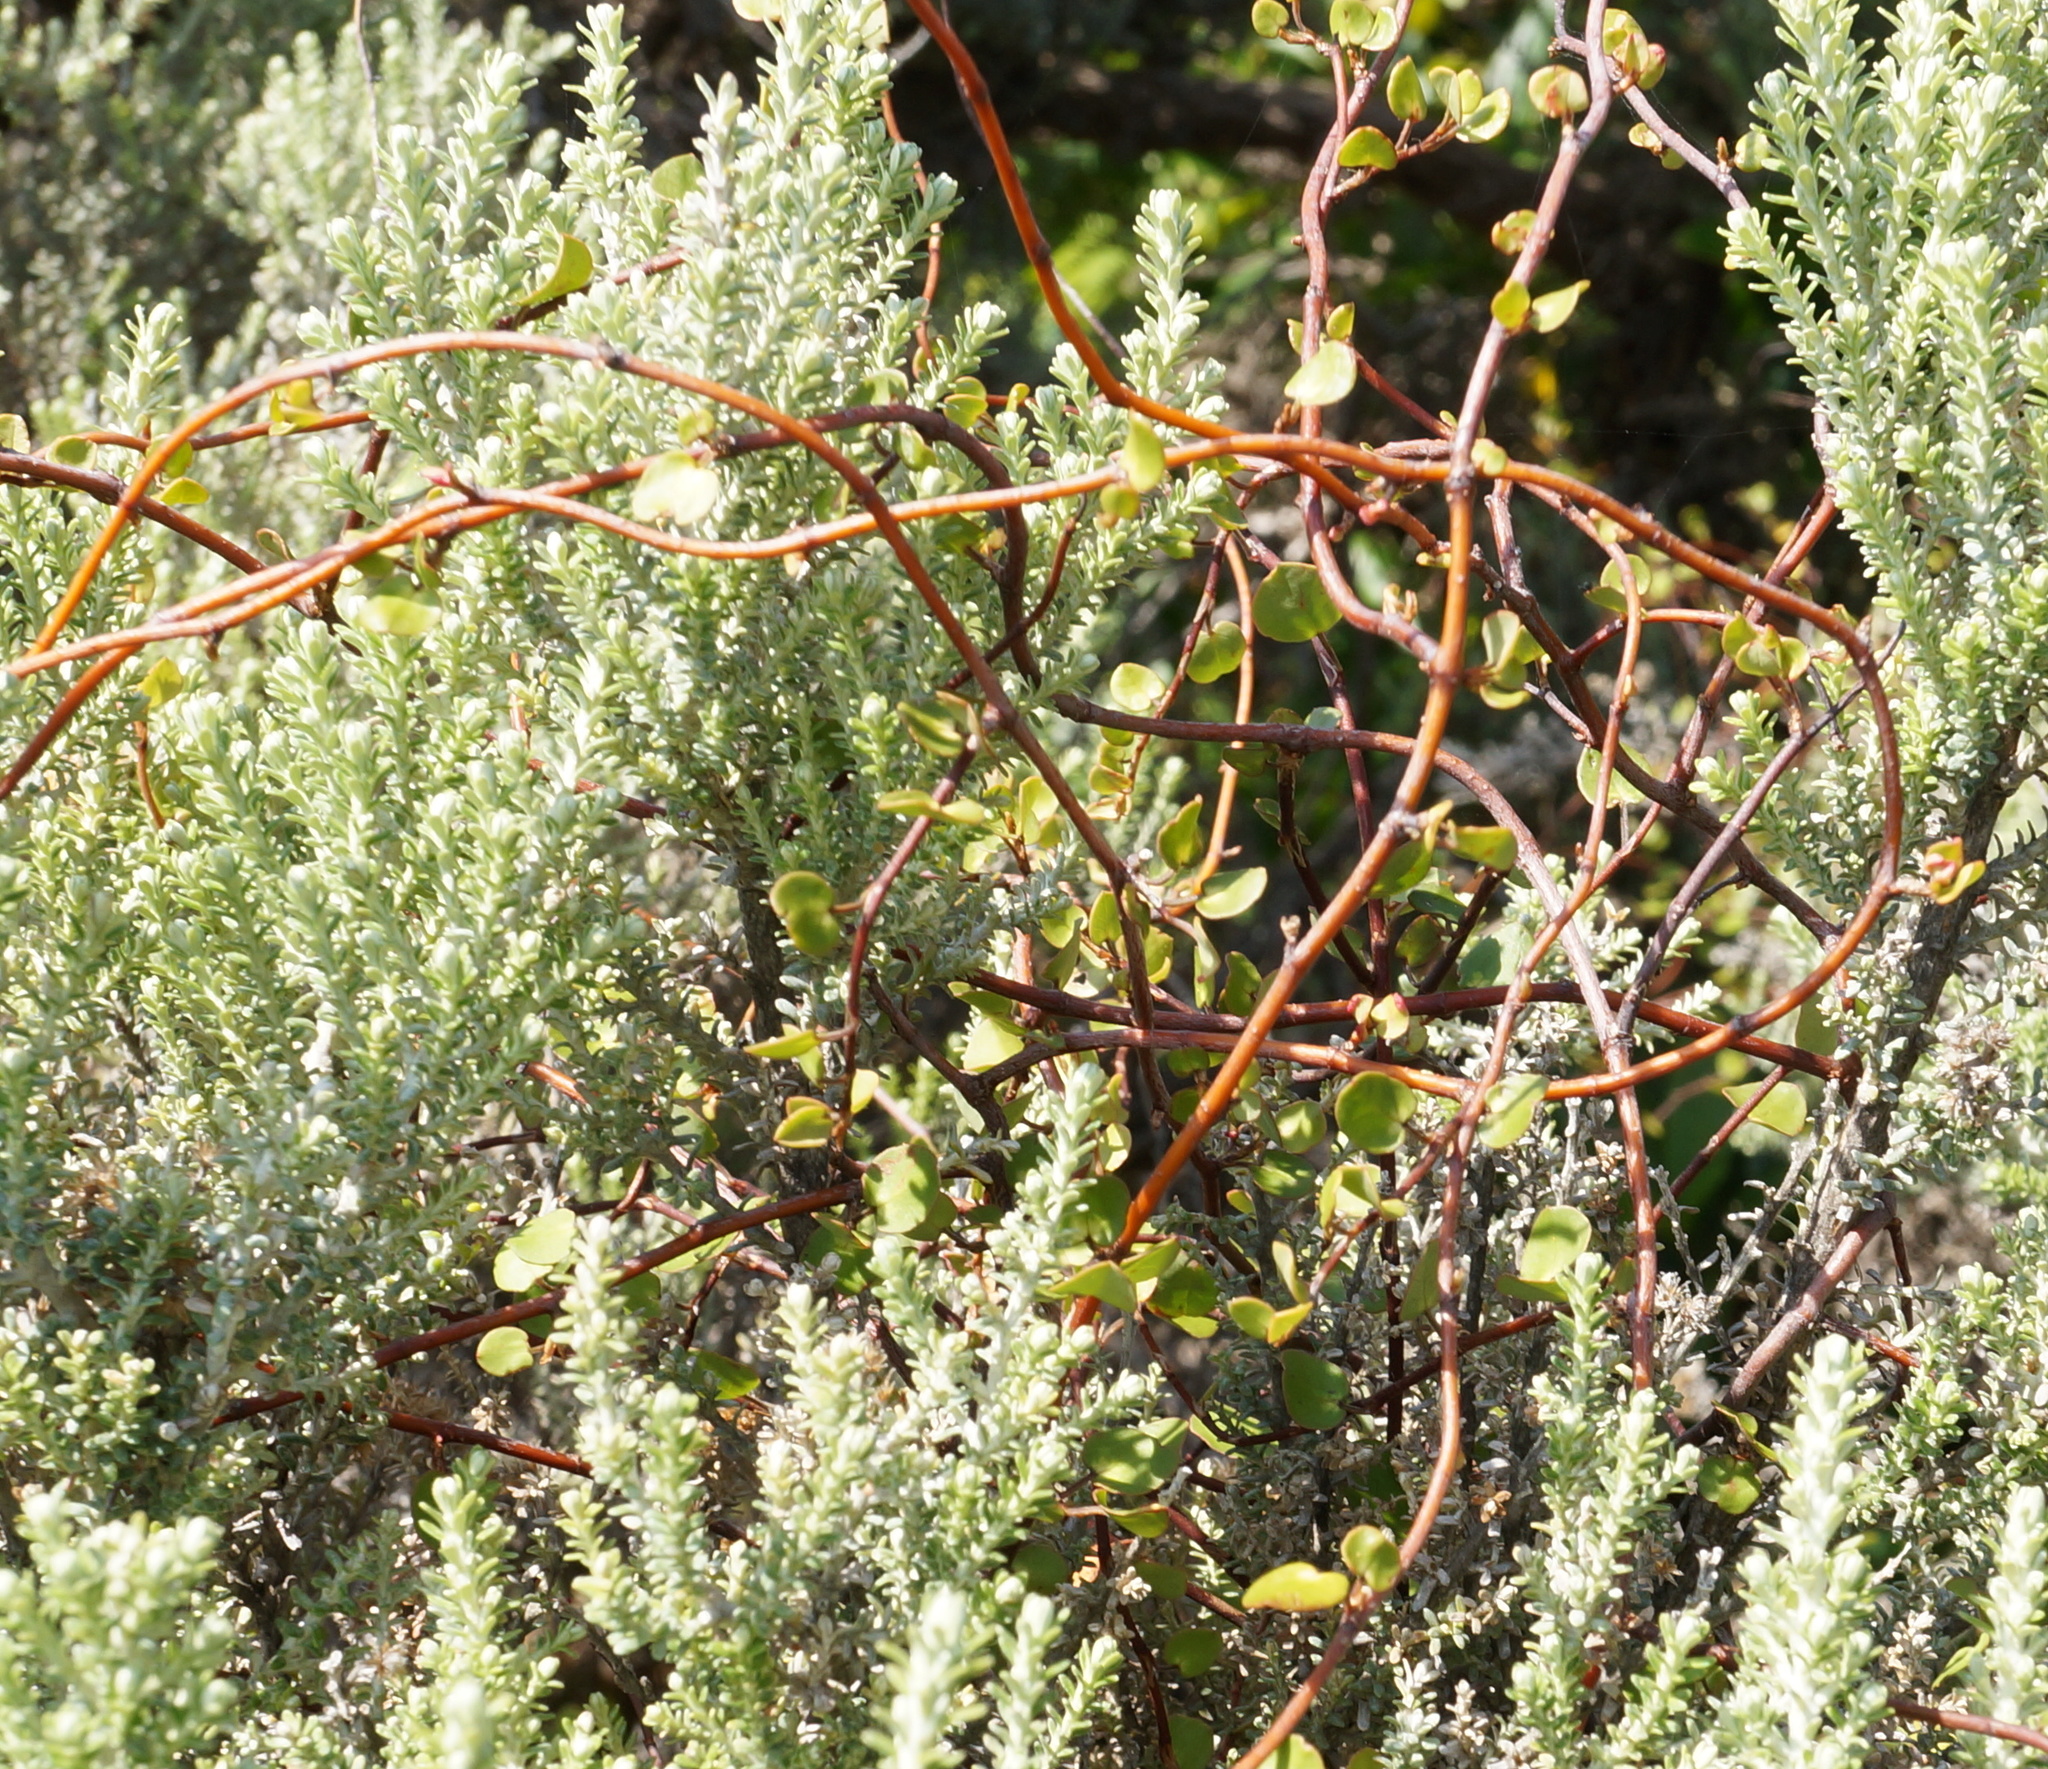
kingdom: Plantae
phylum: Tracheophyta
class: Magnoliopsida
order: Caryophyllales
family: Polygonaceae
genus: Muehlenbeckia
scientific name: Muehlenbeckia complexa
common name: Wireplant
